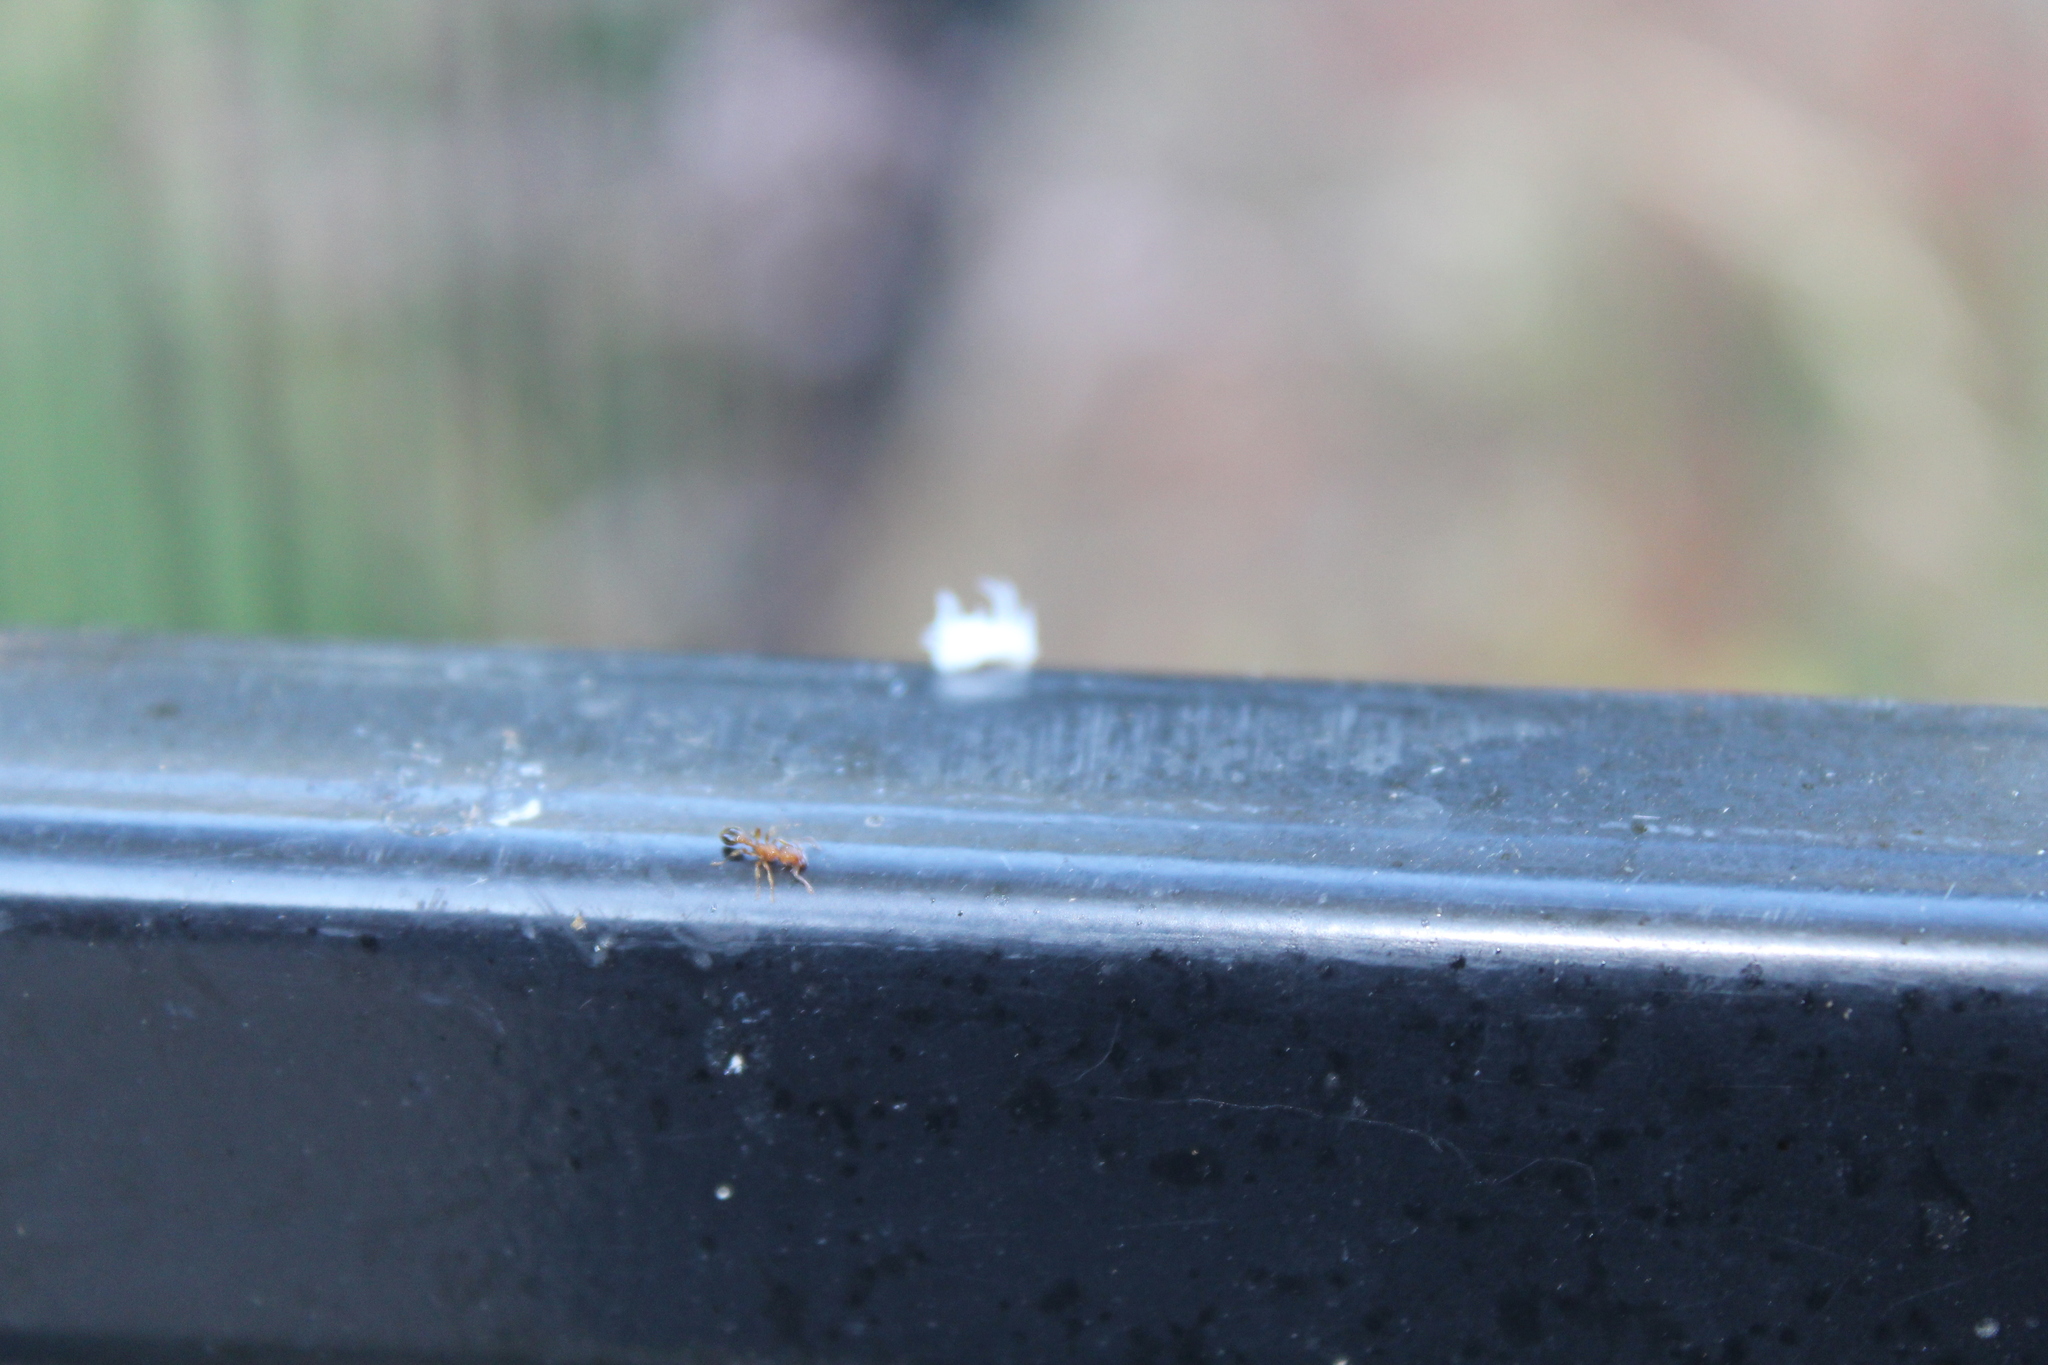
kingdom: Animalia
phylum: Arthropoda
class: Insecta
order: Hymenoptera
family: Formicidae
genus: Tetramorium
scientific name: Tetramorium bicarinatum
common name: Guinea ant
